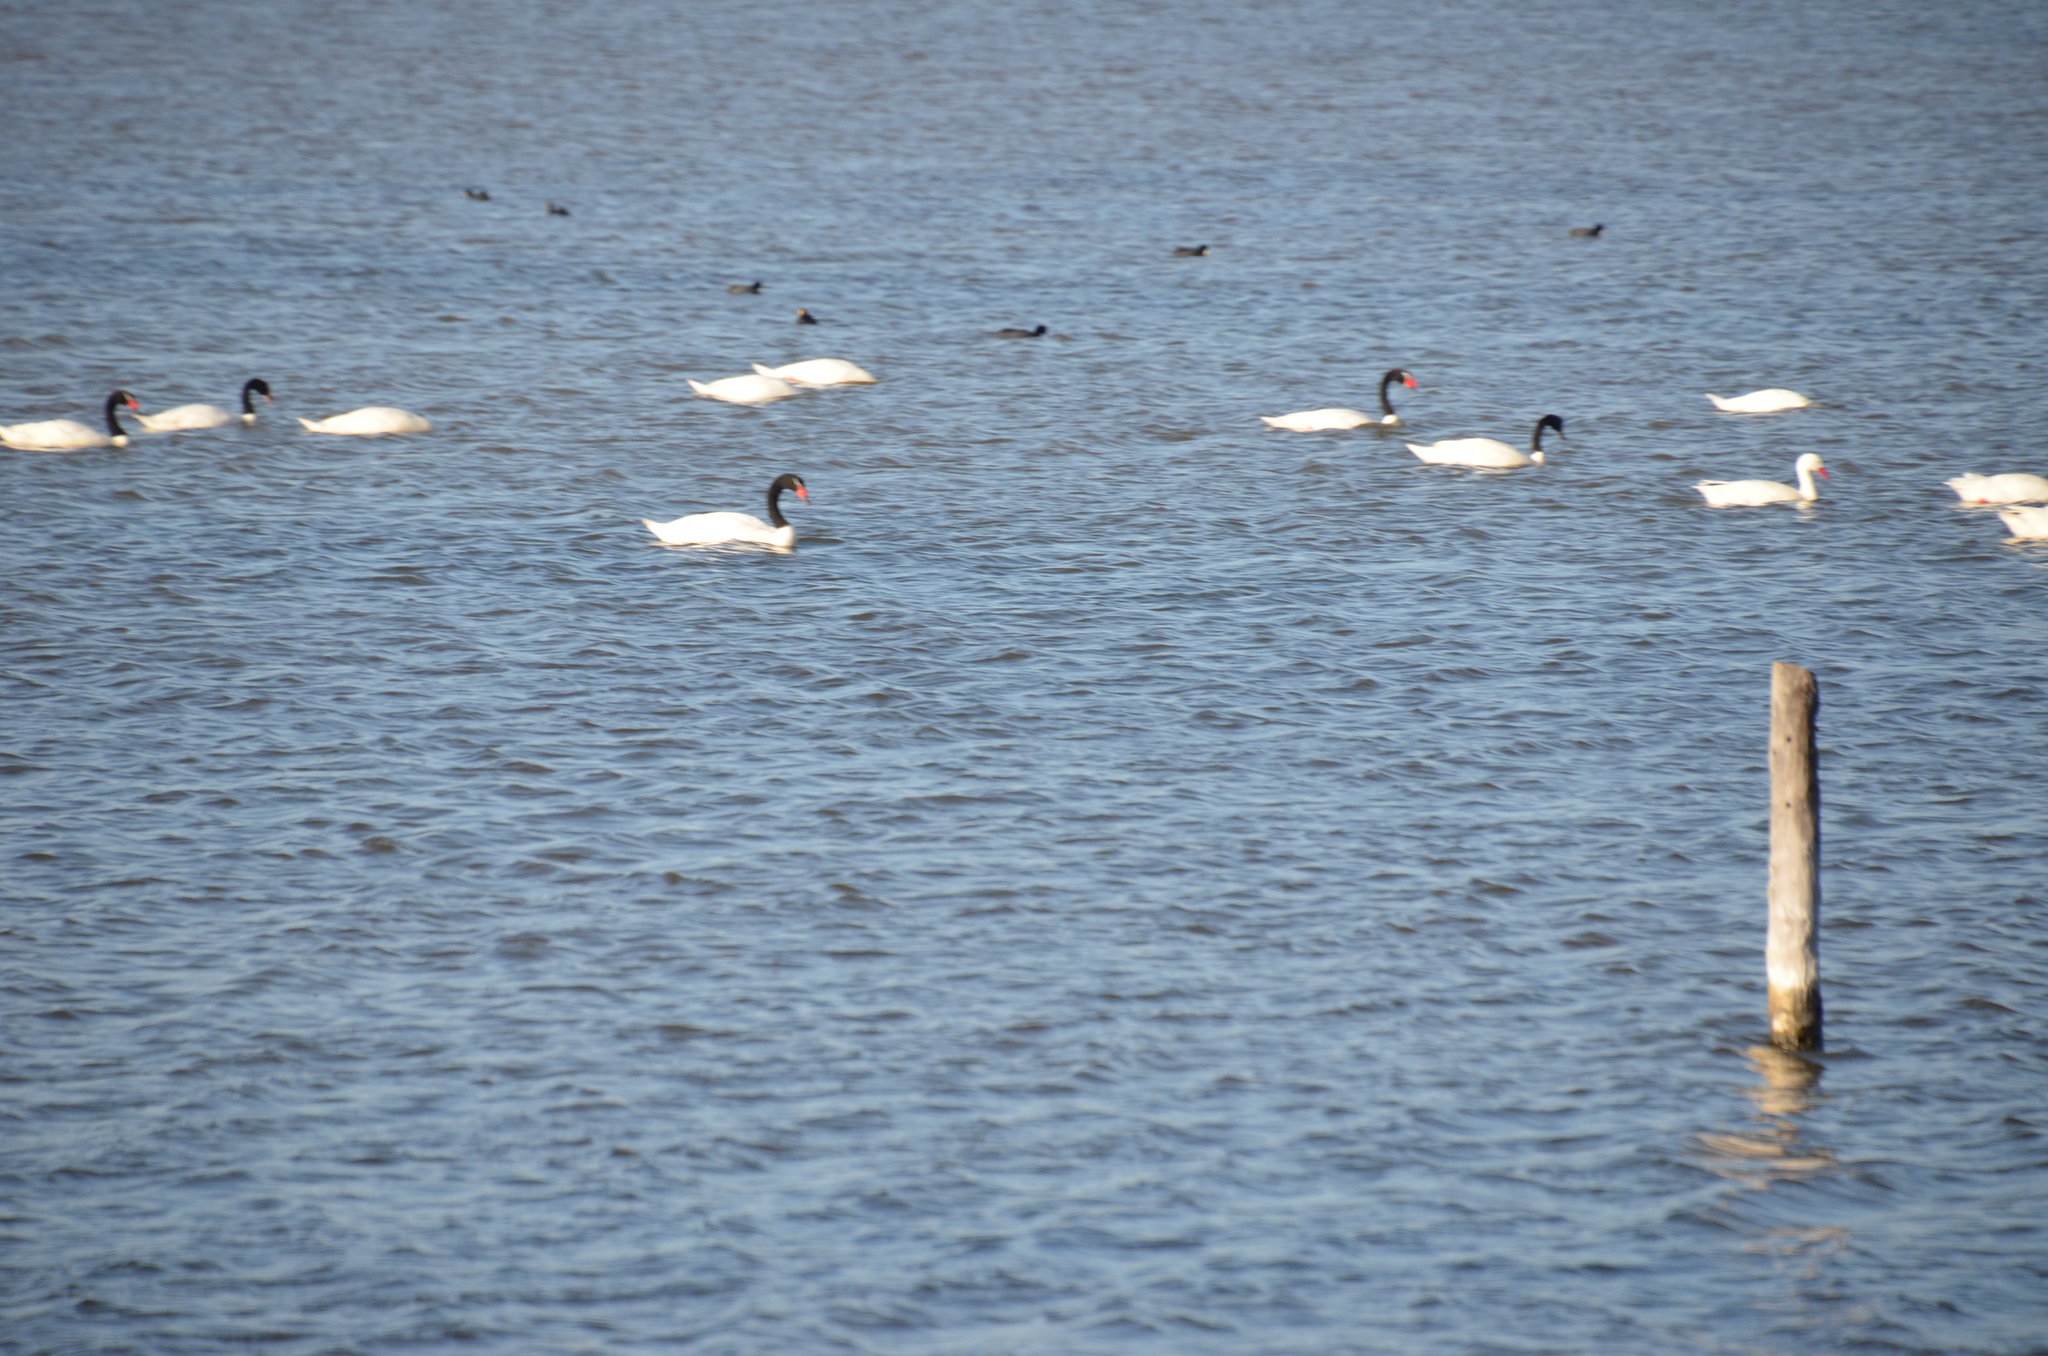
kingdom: Animalia
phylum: Chordata
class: Aves
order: Anseriformes
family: Anatidae
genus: Cygnus
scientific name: Cygnus melancoryphus
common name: Black-necked swan
